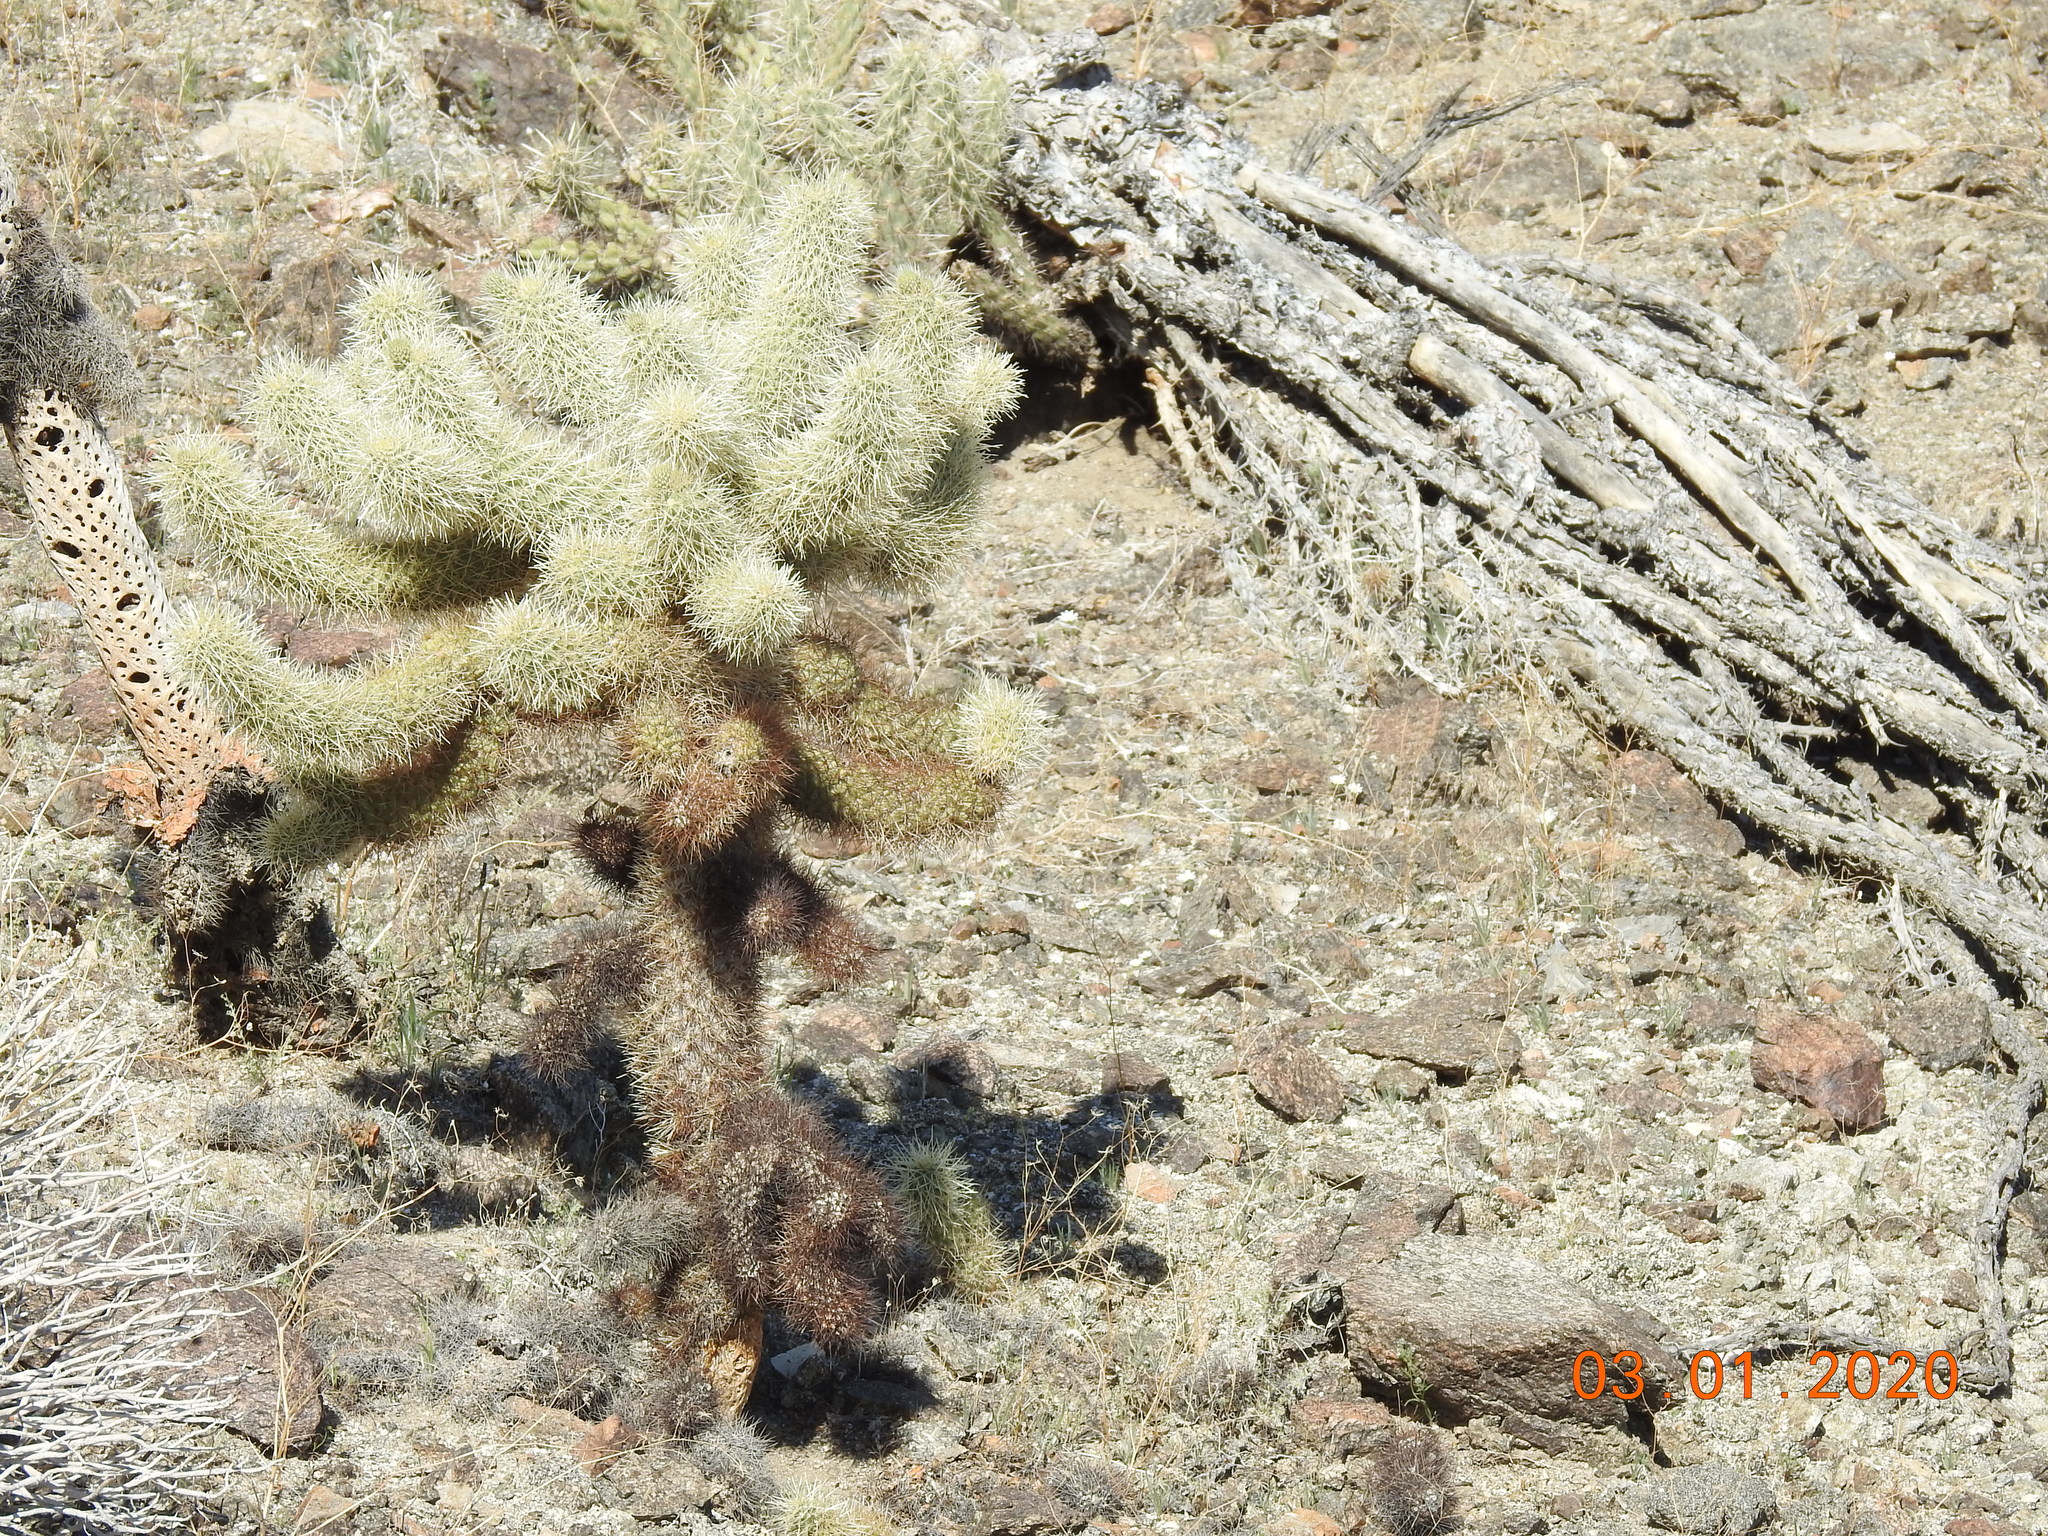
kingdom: Plantae
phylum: Tracheophyta
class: Magnoliopsida
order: Caryophyllales
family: Cactaceae
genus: Cylindropuntia
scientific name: Cylindropuntia fosbergii
